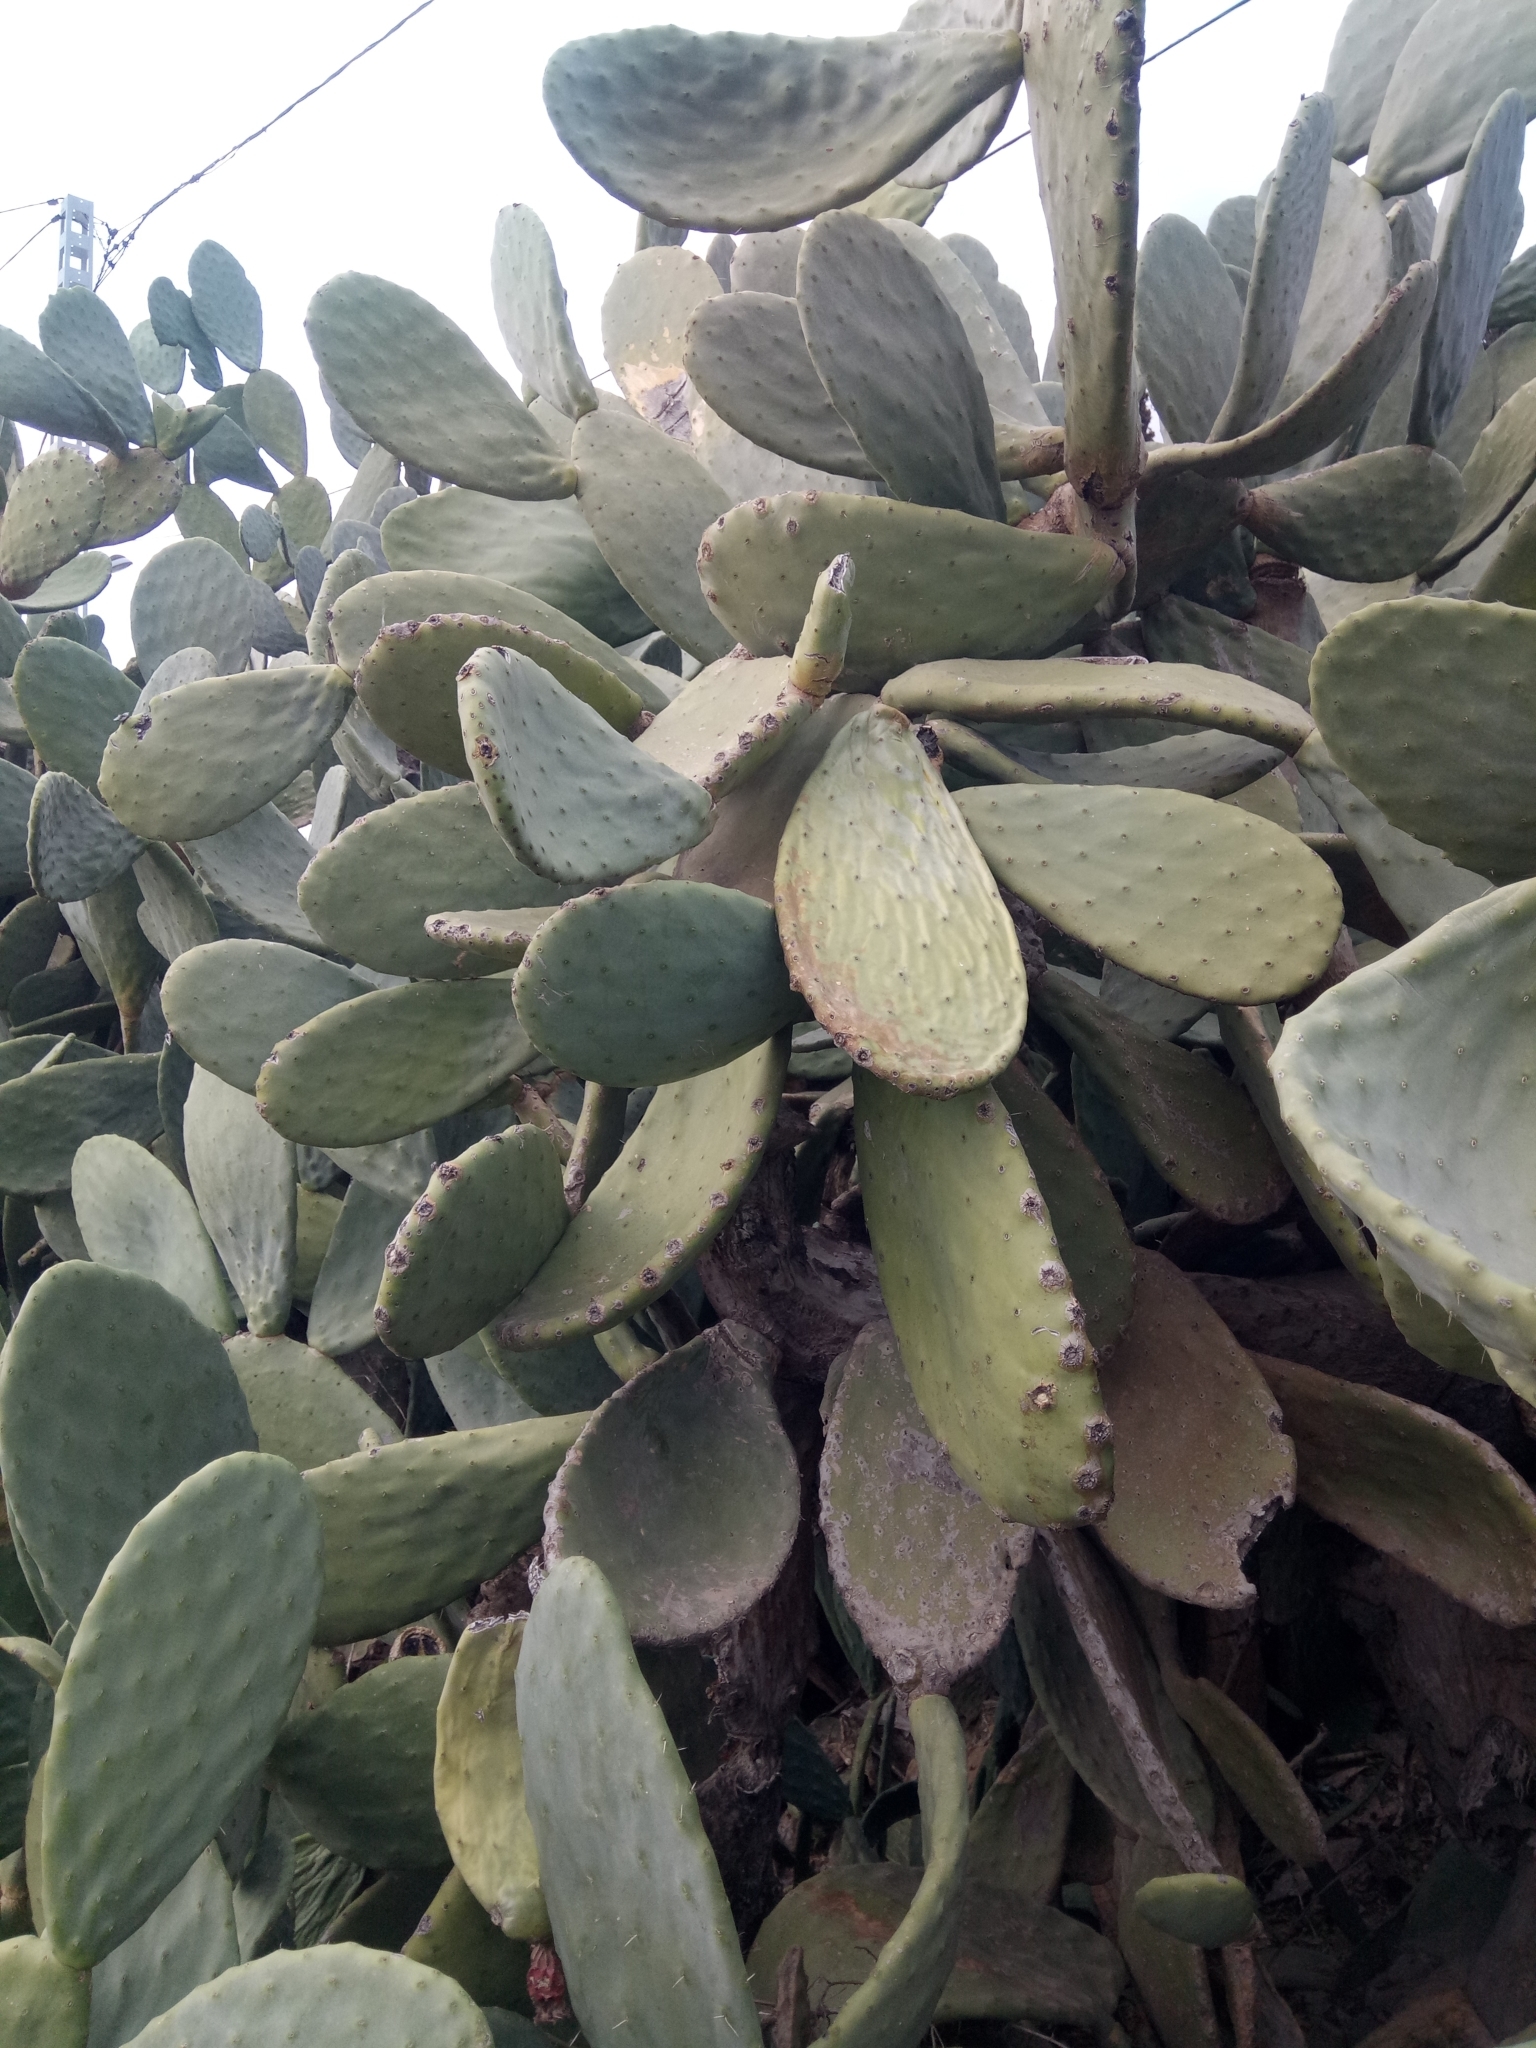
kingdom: Plantae
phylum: Tracheophyta
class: Magnoliopsida
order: Caryophyllales
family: Cactaceae
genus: Opuntia
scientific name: Opuntia ficus-indica
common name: Barbary fig
